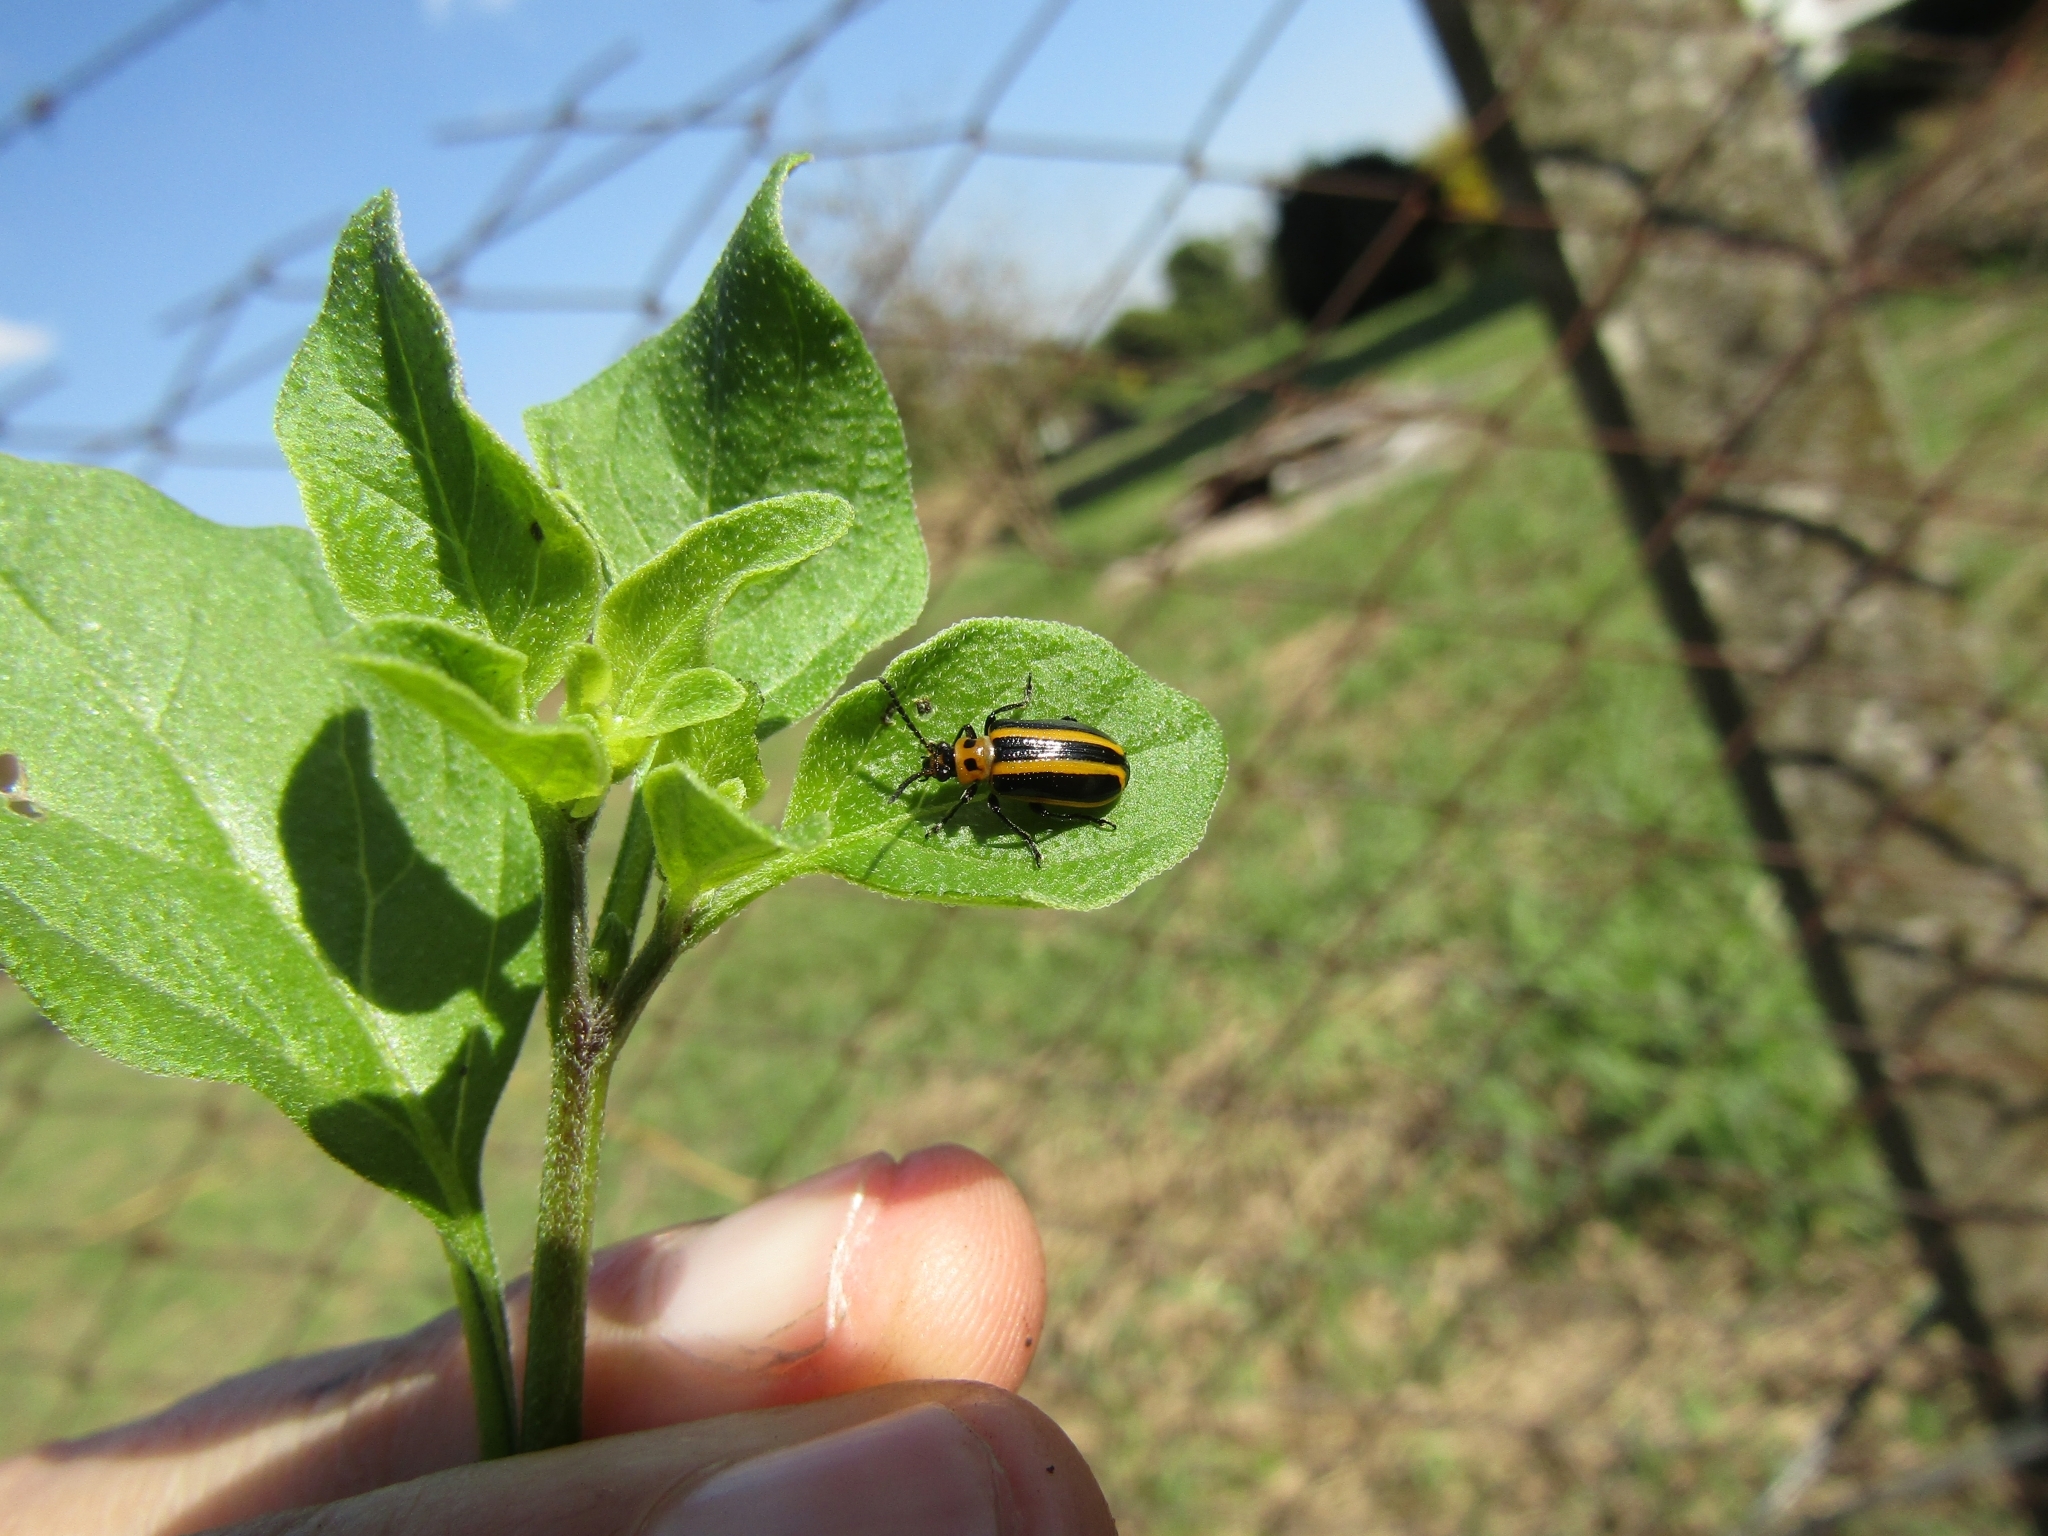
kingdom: Animalia
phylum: Arthropoda
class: Insecta
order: Coleoptera
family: Chrysomelidae
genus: Lema
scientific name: Lema bilineata
